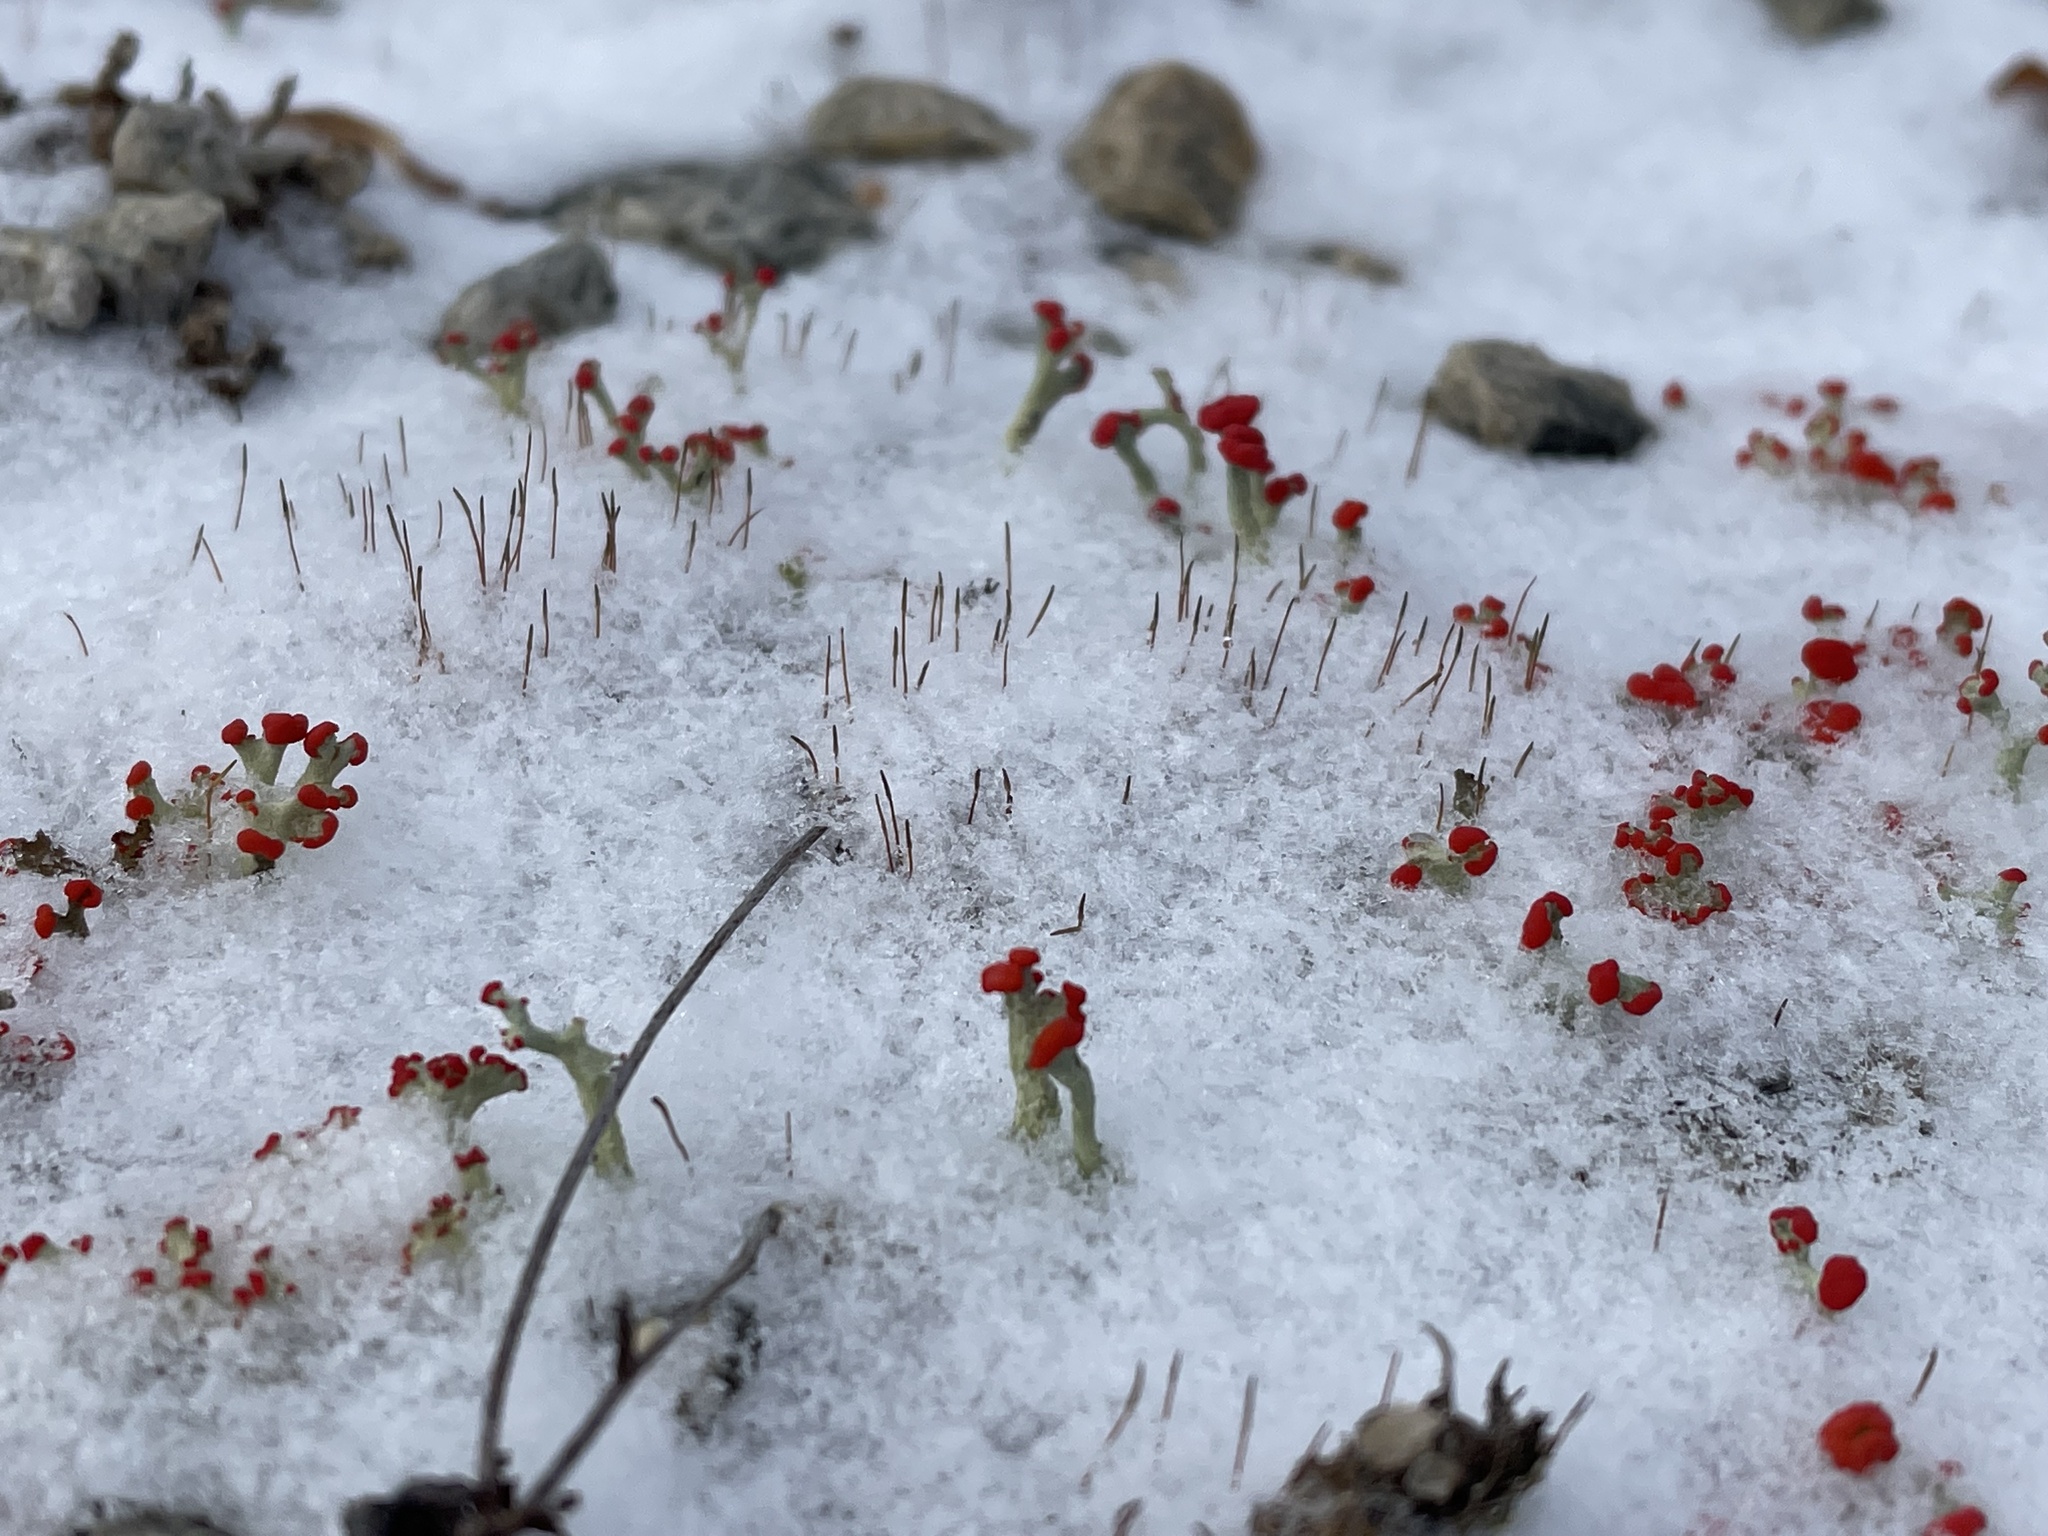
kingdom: Fungi
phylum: Ascomycota
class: Lecanoromycetes
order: Lecanorales
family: Cladoniaceae
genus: Cladonia
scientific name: Cladonia cristatella
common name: British soldier lichen
